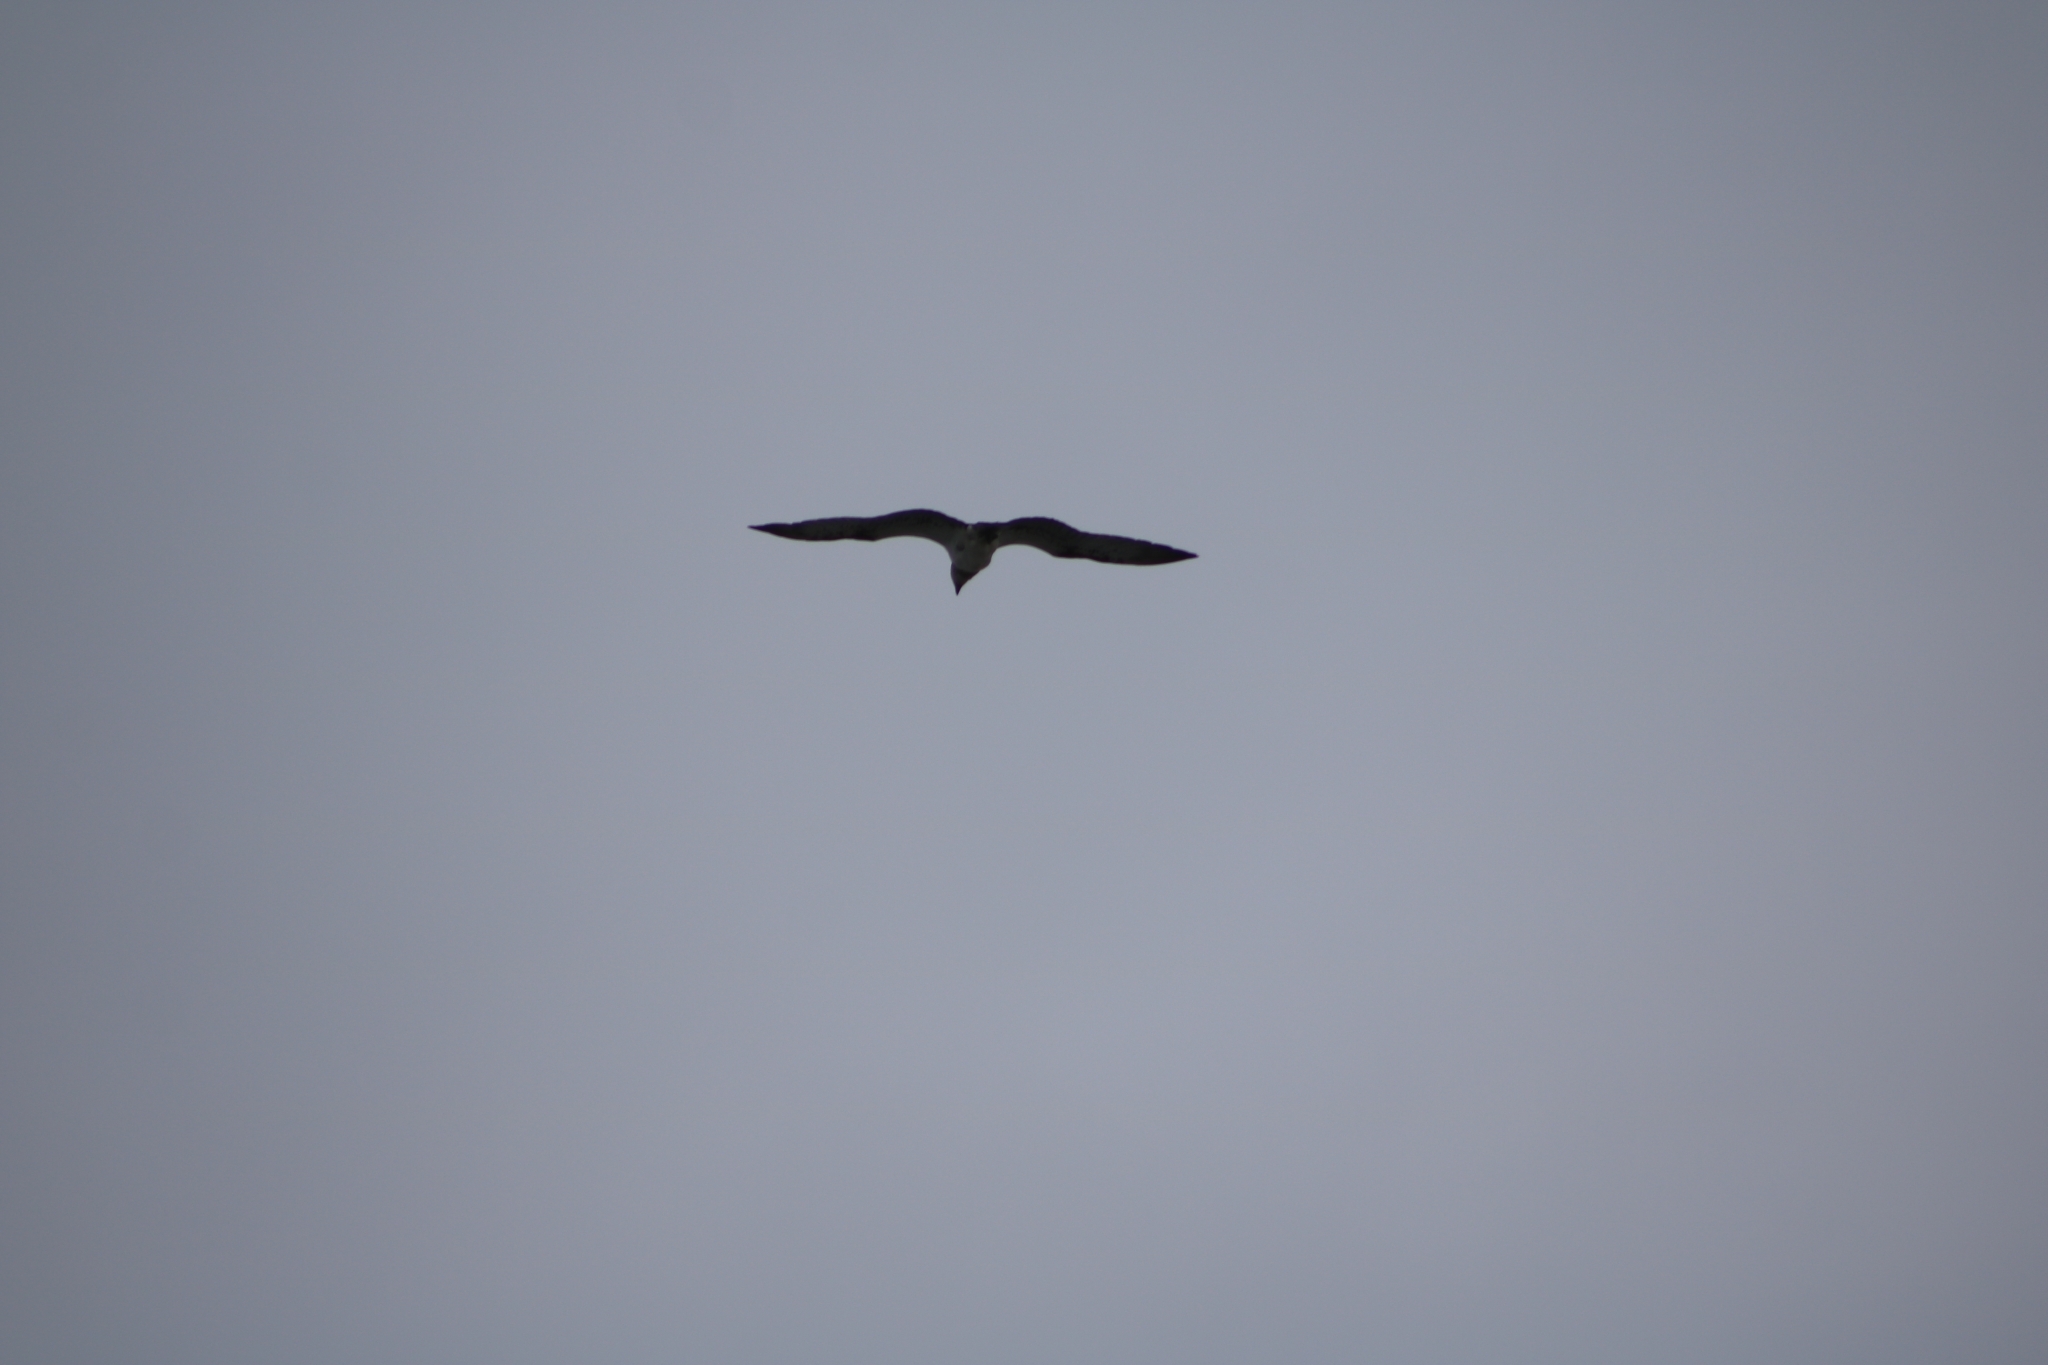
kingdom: Animalia
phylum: Chordata
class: Aves
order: Accipitriformes
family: Pandionidae
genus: Pandion
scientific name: Pandion haliaetus
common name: Osprey
